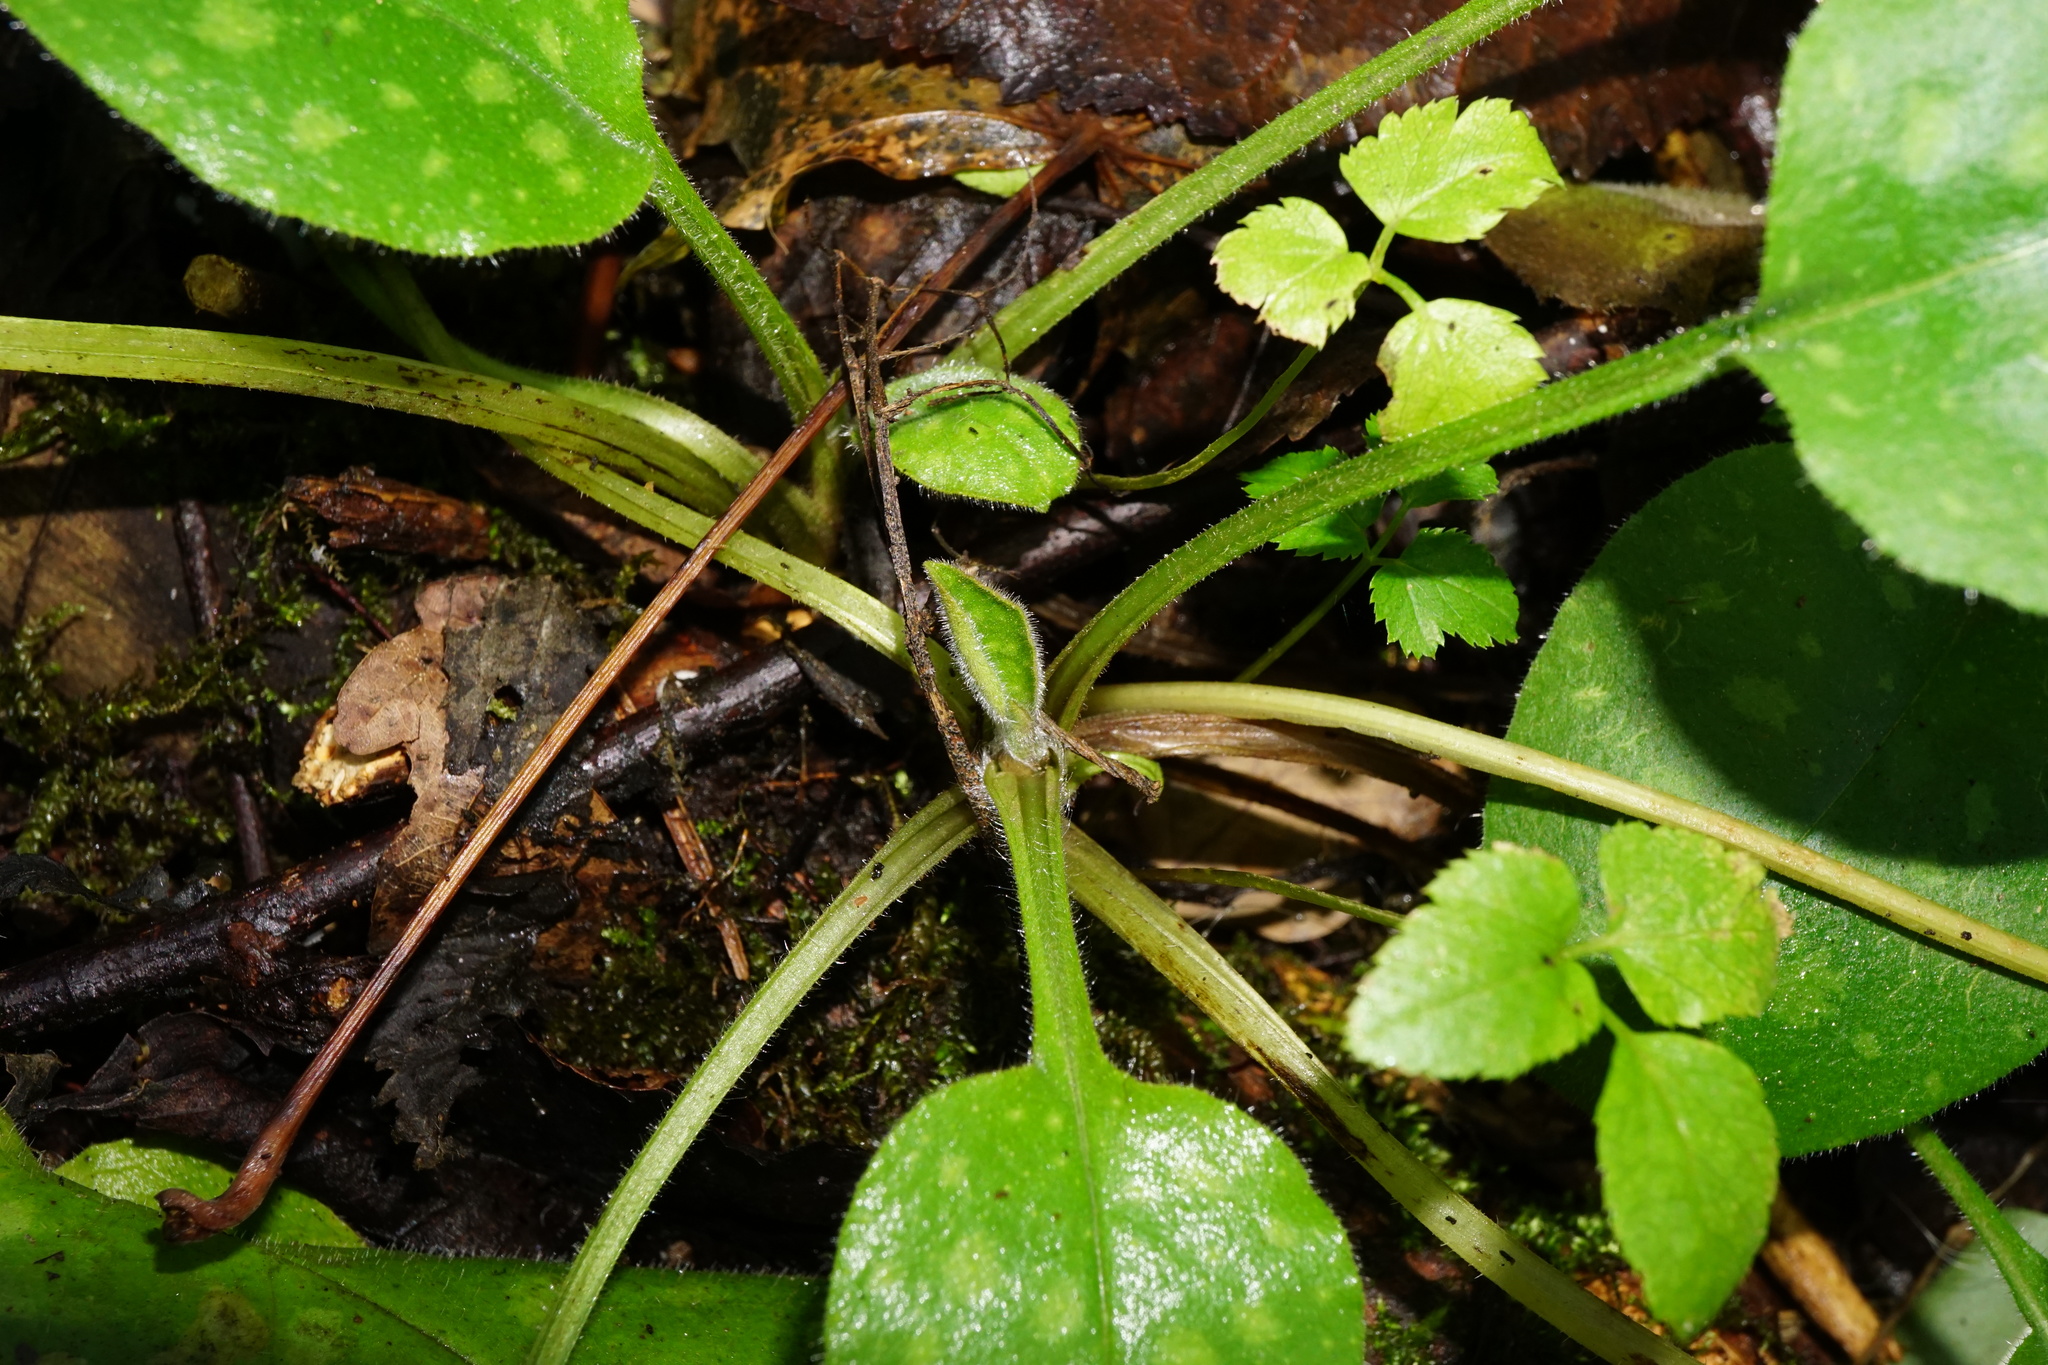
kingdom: Plantae
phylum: Tracheophyta
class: Magnoliopsida
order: Boraginales
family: Boraginaceae
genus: Pulmonaria
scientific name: Pulmonaria officinalis
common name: Lungwort
